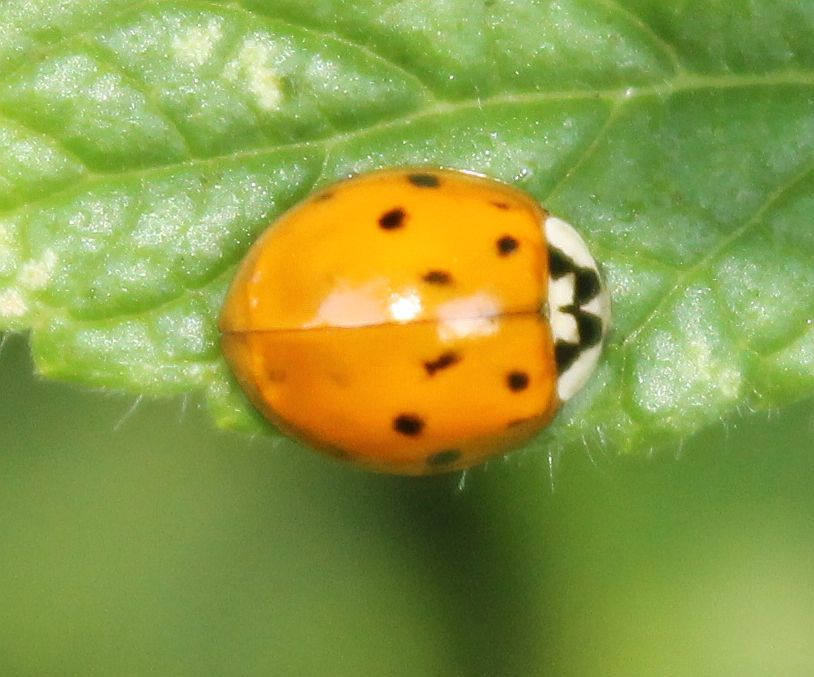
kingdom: Animalia
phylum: Arthropoda
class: Insecta
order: Coleoptera
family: Coccinellidae
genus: Harmonia
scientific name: Harmonia axyridis
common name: Harlequin ladybird
